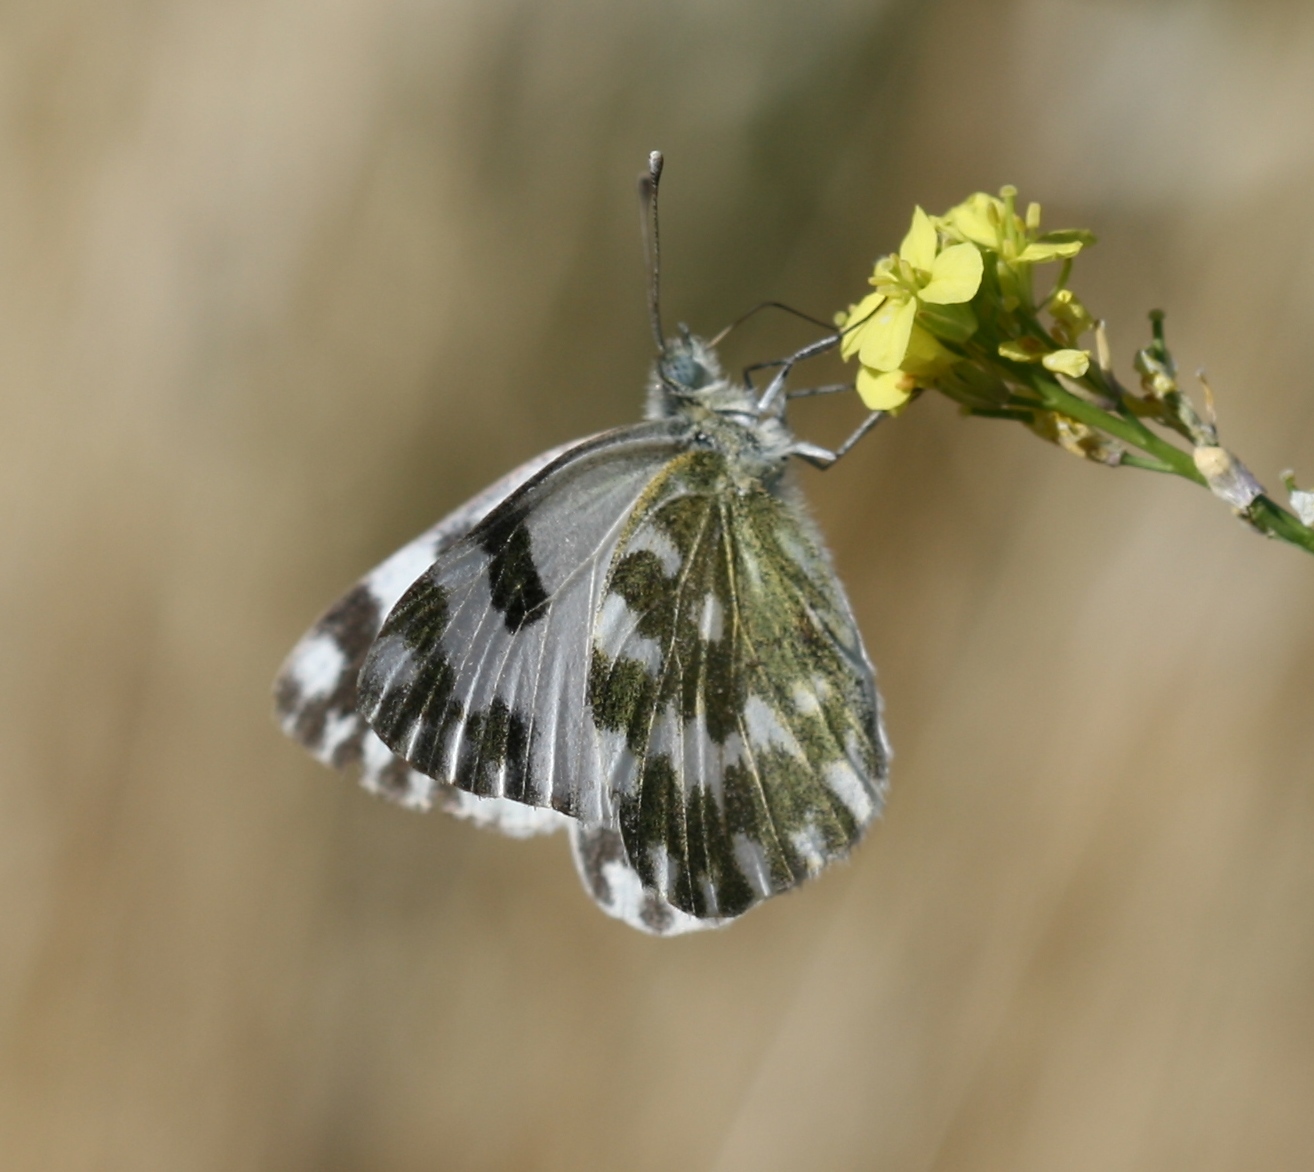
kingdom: Animalia
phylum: Arthropoda
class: Insecta
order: Lepidoptera
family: Pieridae
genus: Pontia
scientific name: Pontia daplidice
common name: Bath white
